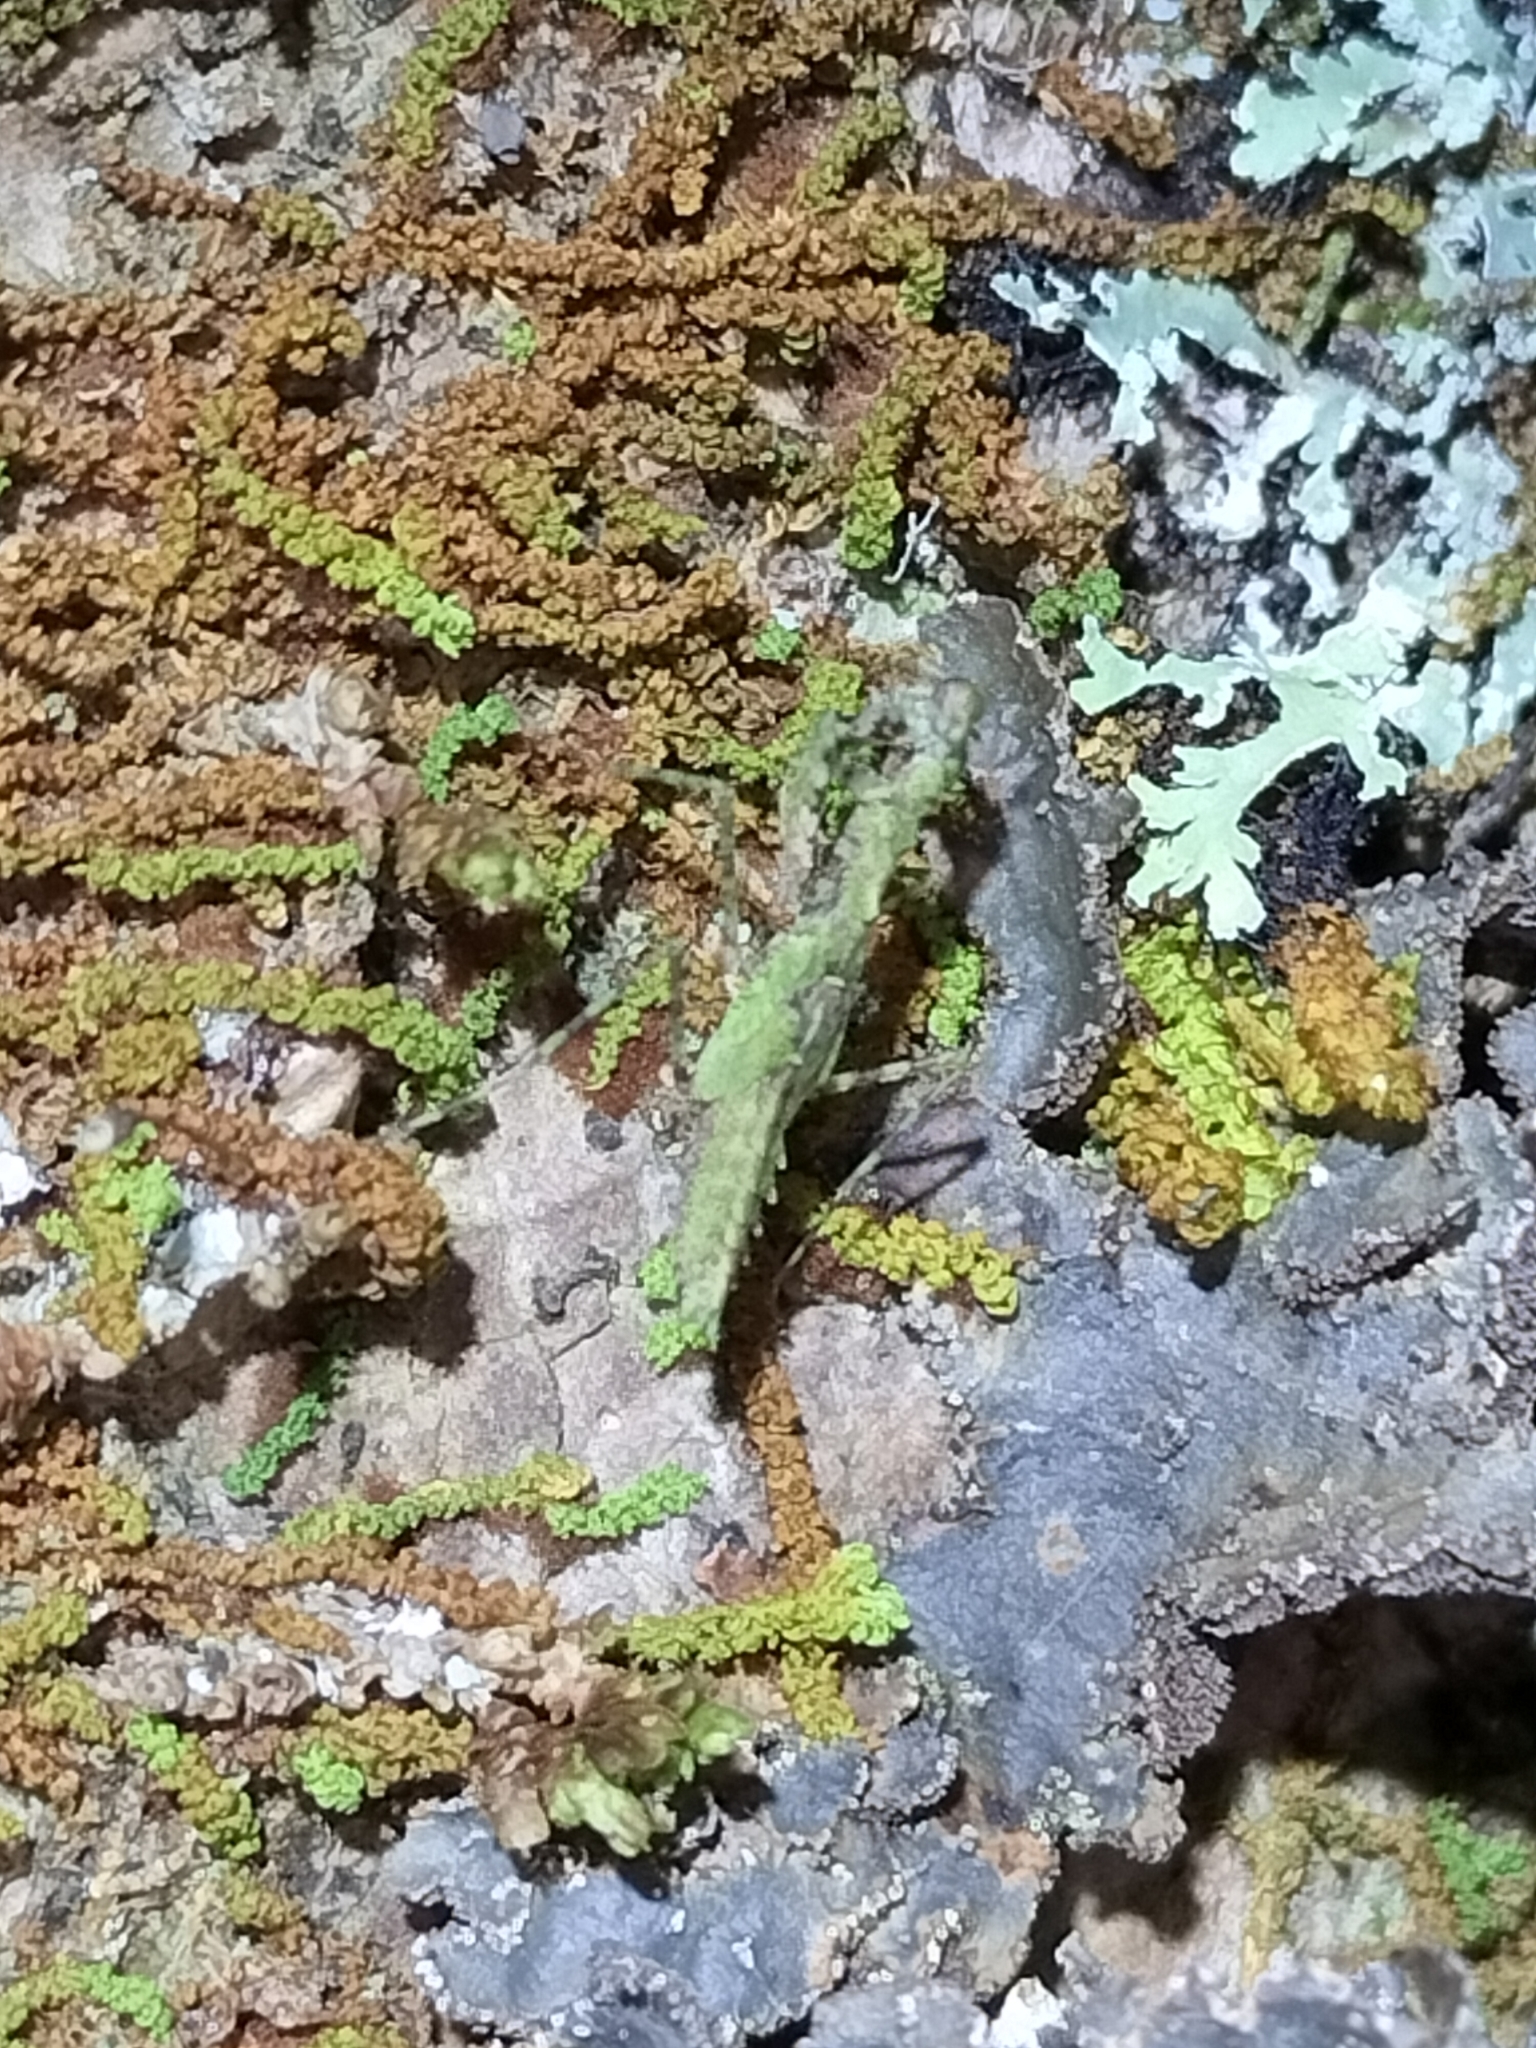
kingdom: Animalia
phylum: Arthropoda
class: Insecta
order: Mantodea
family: Nanomantidae
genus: Calofulcinia
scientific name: Calofulcinia oxynota
